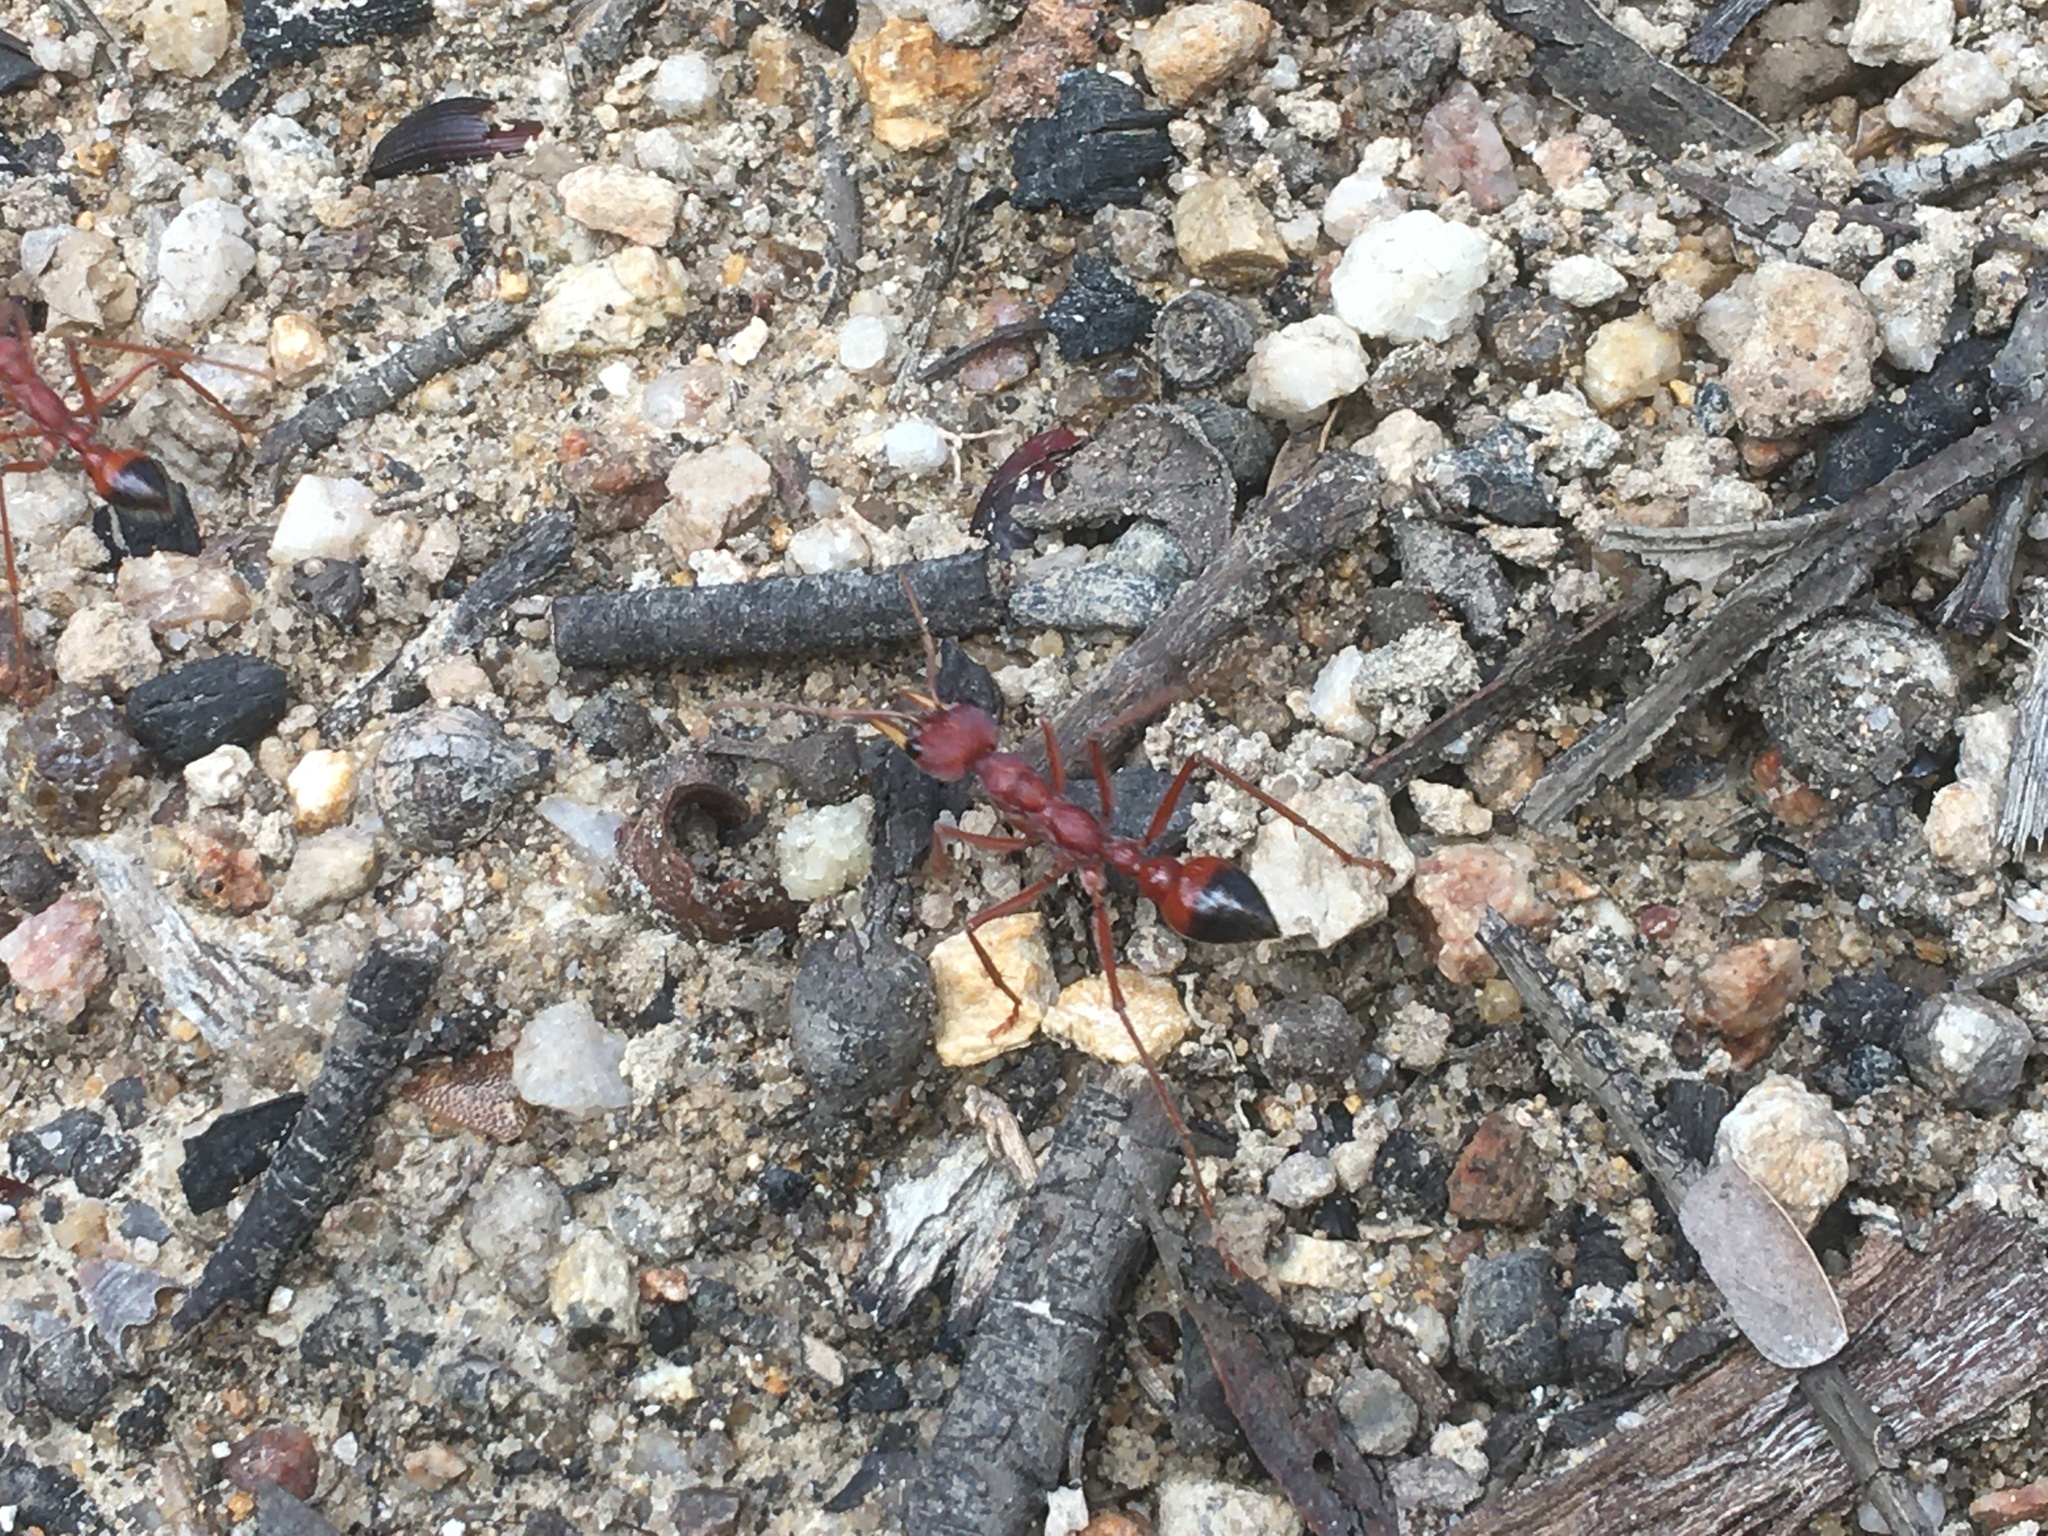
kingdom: Animalia
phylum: Arthropoda
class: Insecta
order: Hymenoptera
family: Formicidae
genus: Myrmecia
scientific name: Myrmecia gulosa
